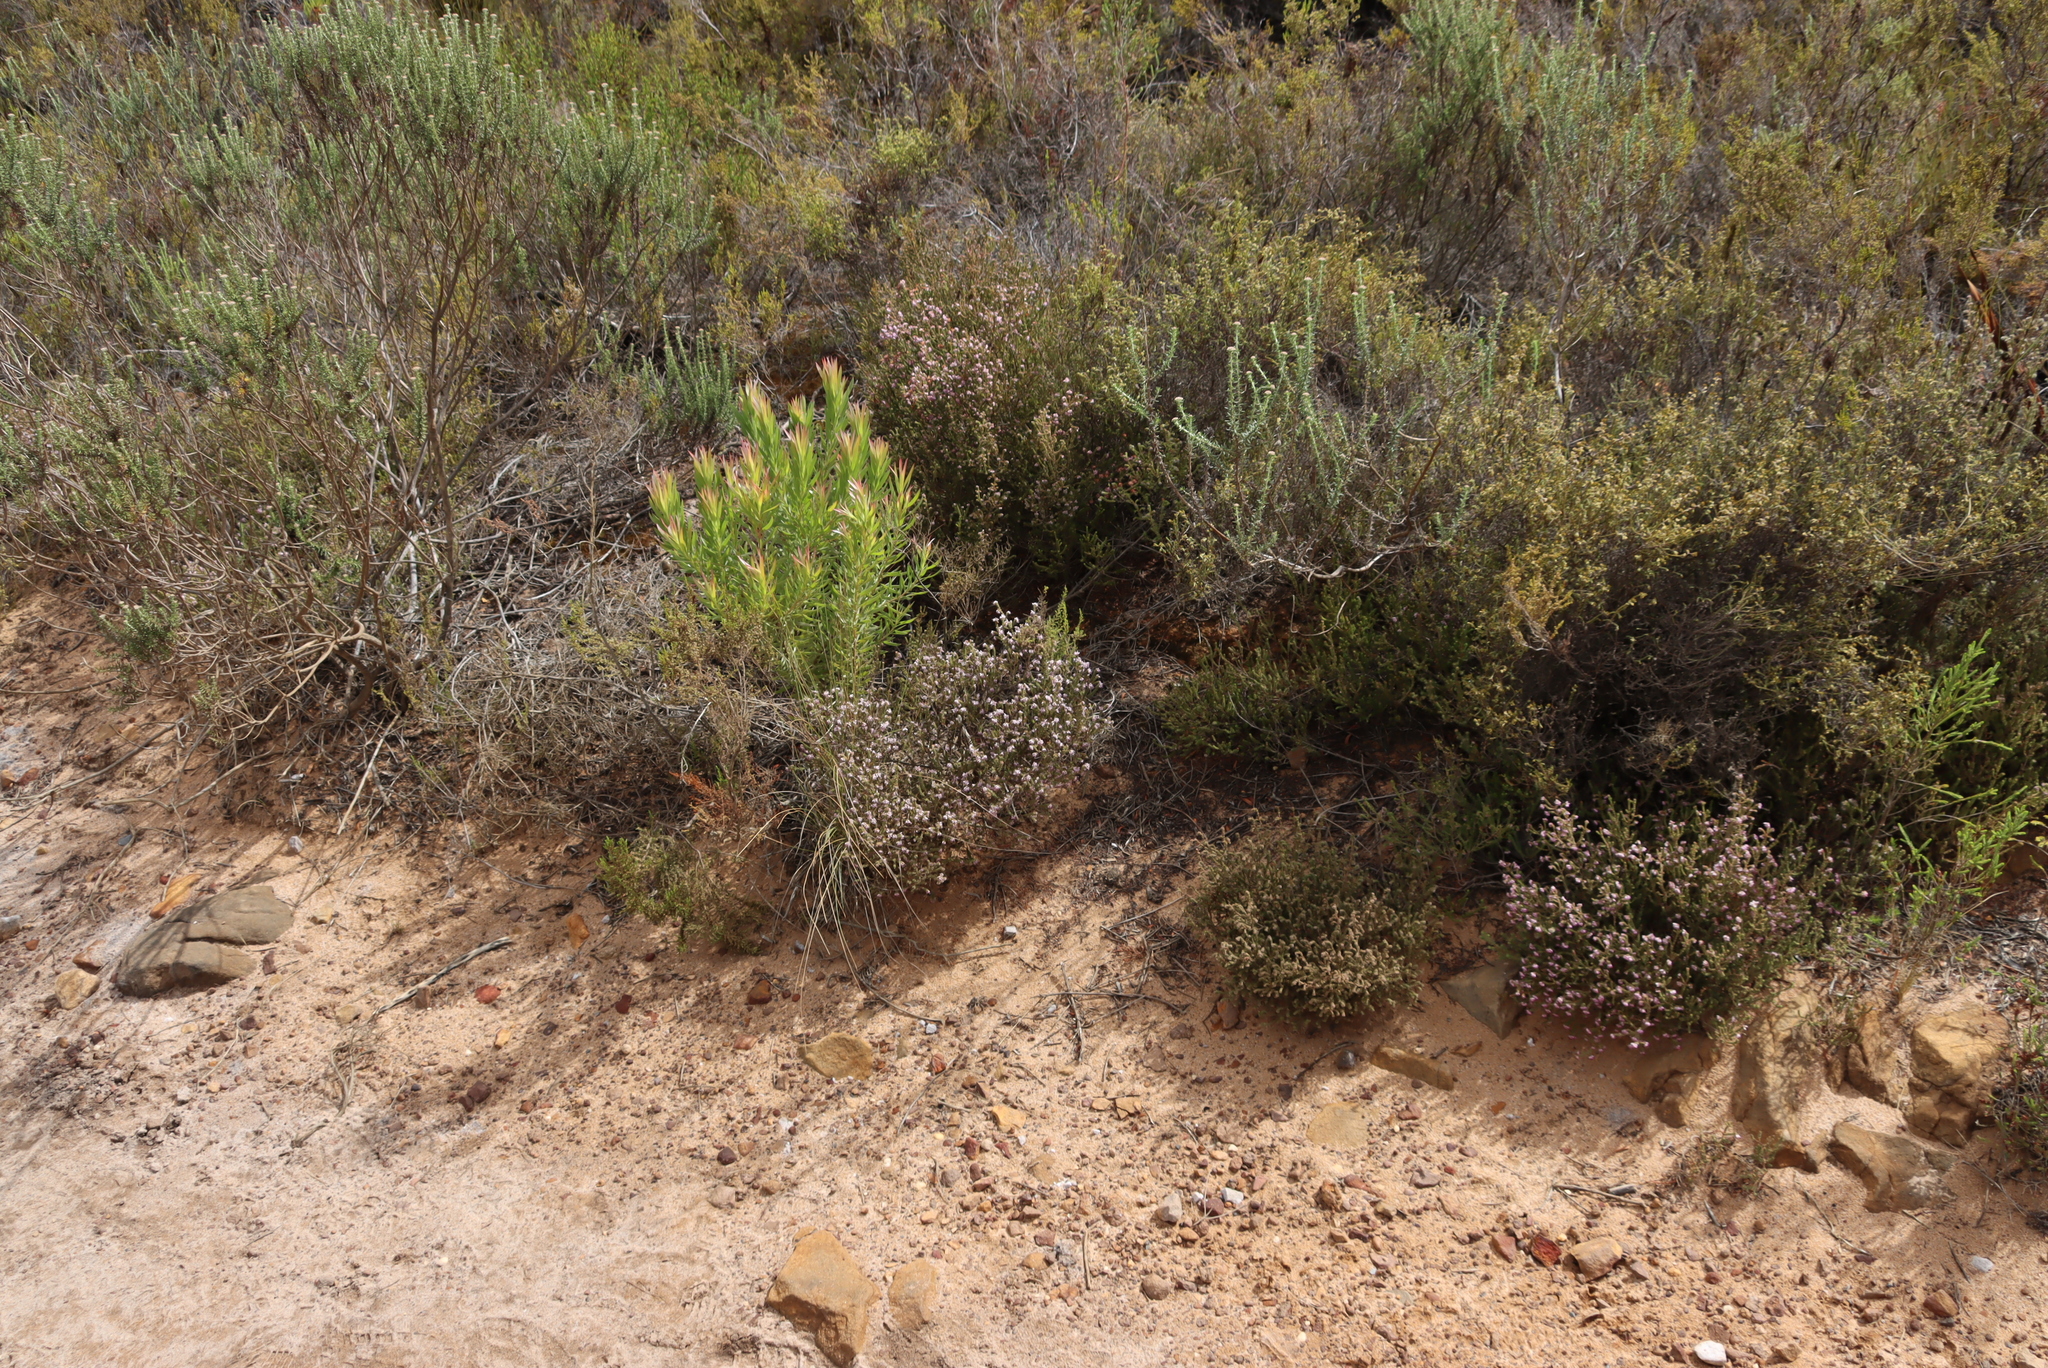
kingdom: Plantae
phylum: Tracheophyta
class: Magnoliopsida
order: Ericales
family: Ericaceae
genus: Erica
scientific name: Erica ericoides
